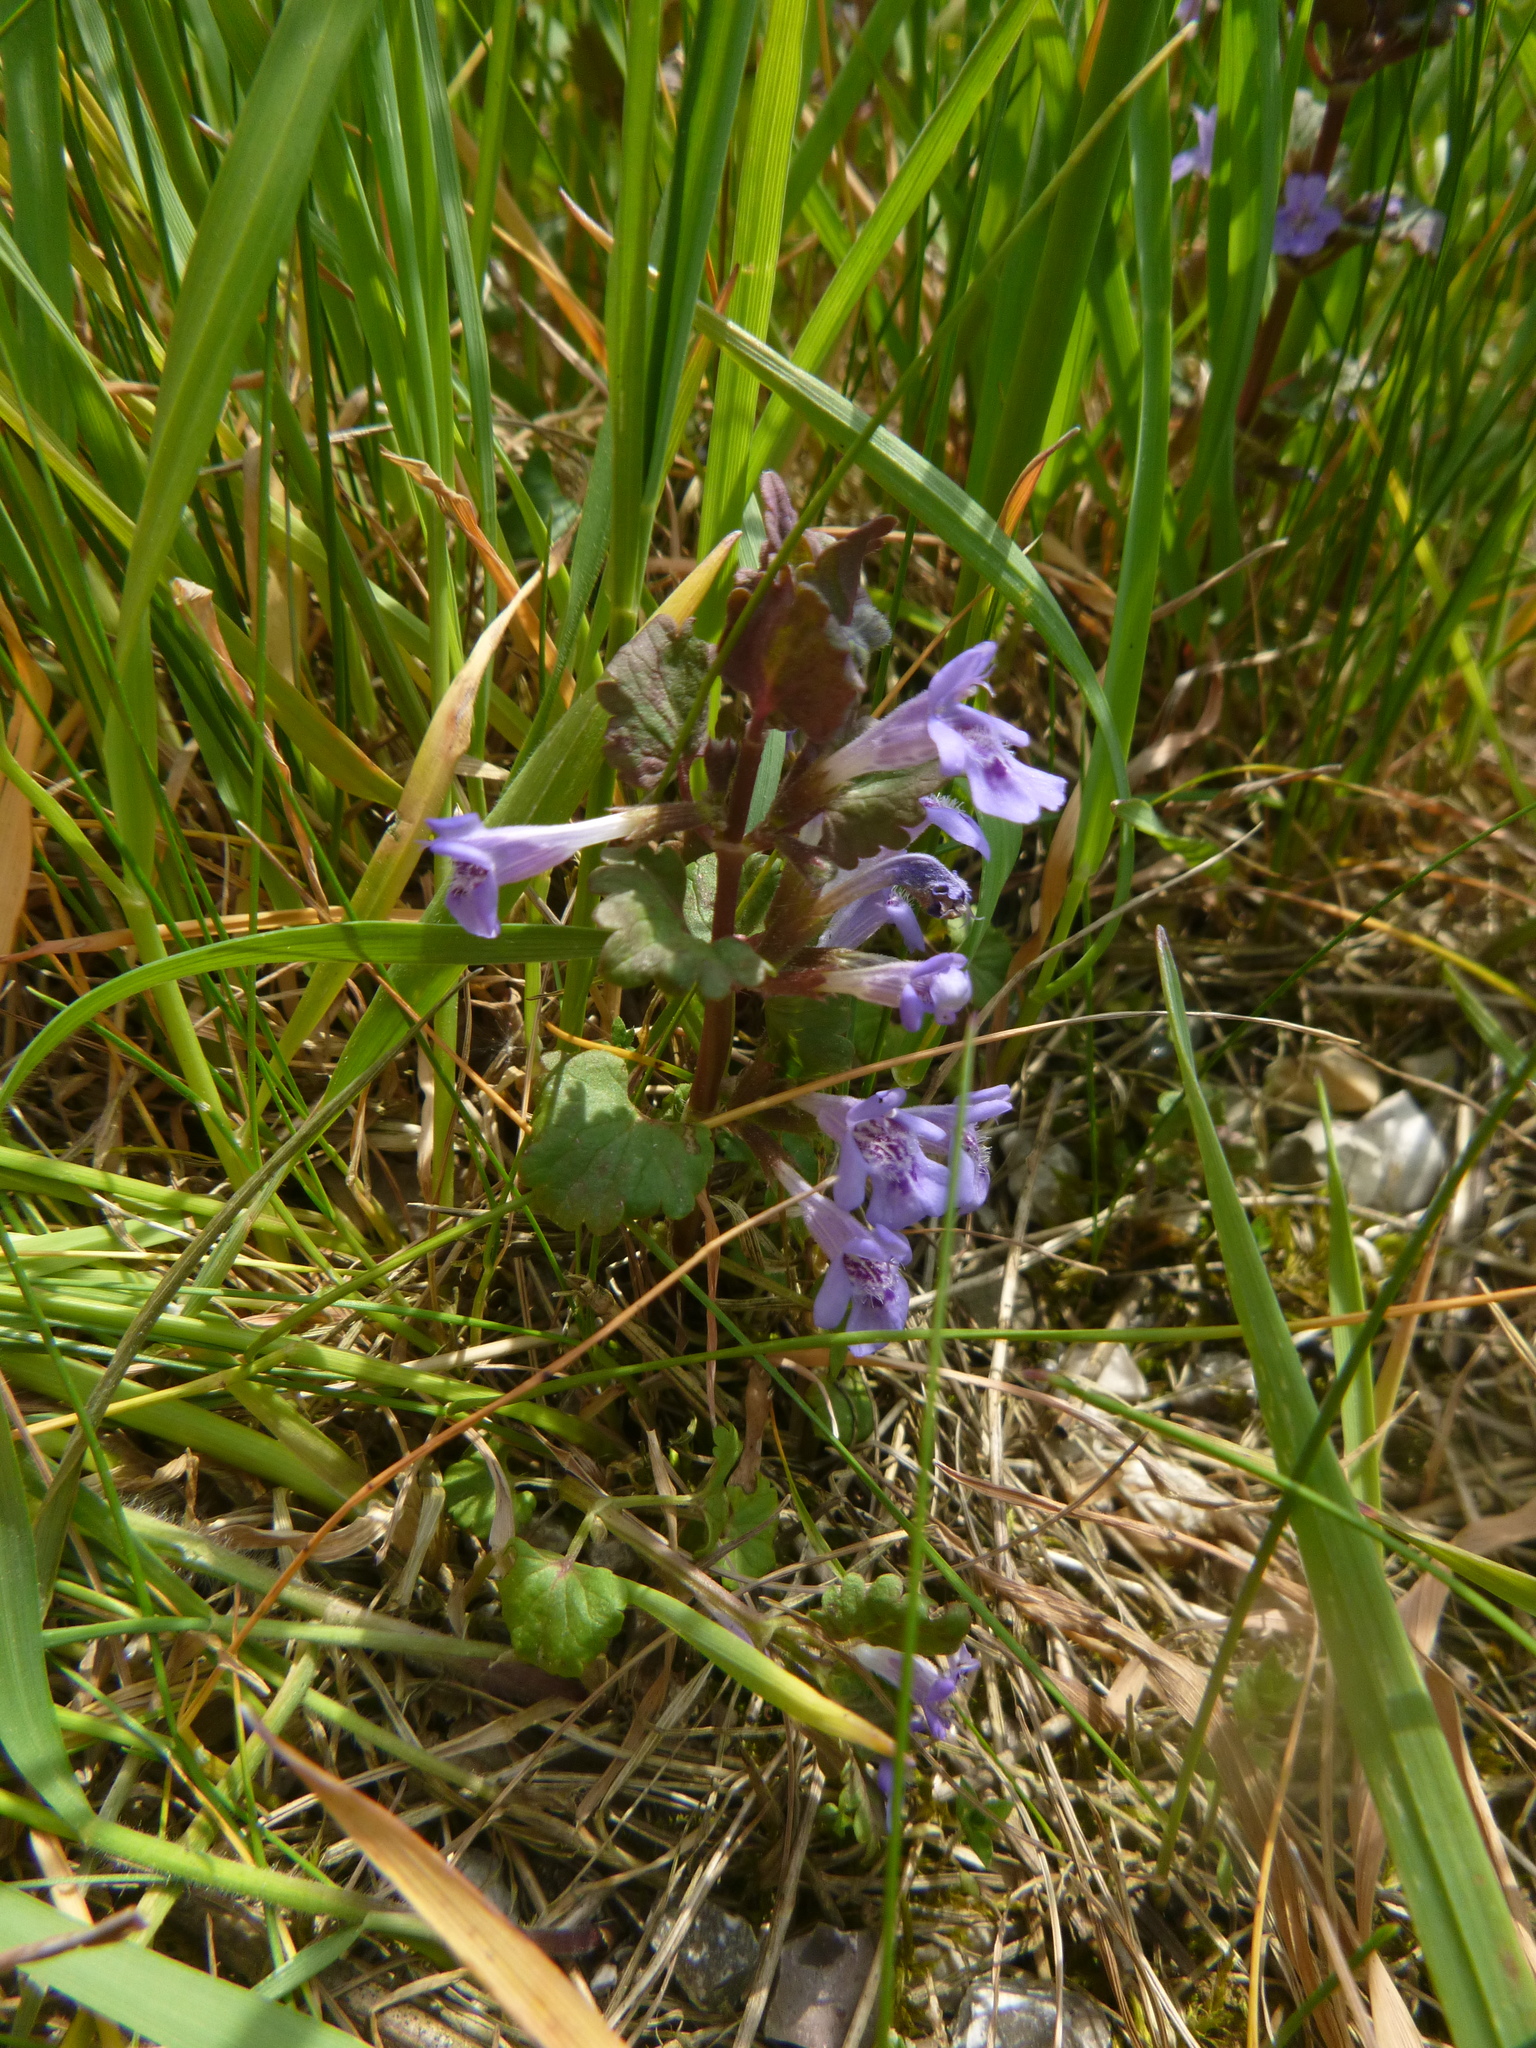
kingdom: Plantae
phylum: Tracheophyta
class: Magnoliopsida
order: Lamiales
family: Lamiaceae
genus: Glechoma
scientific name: Glechoma hederacea
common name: Ground ivy
